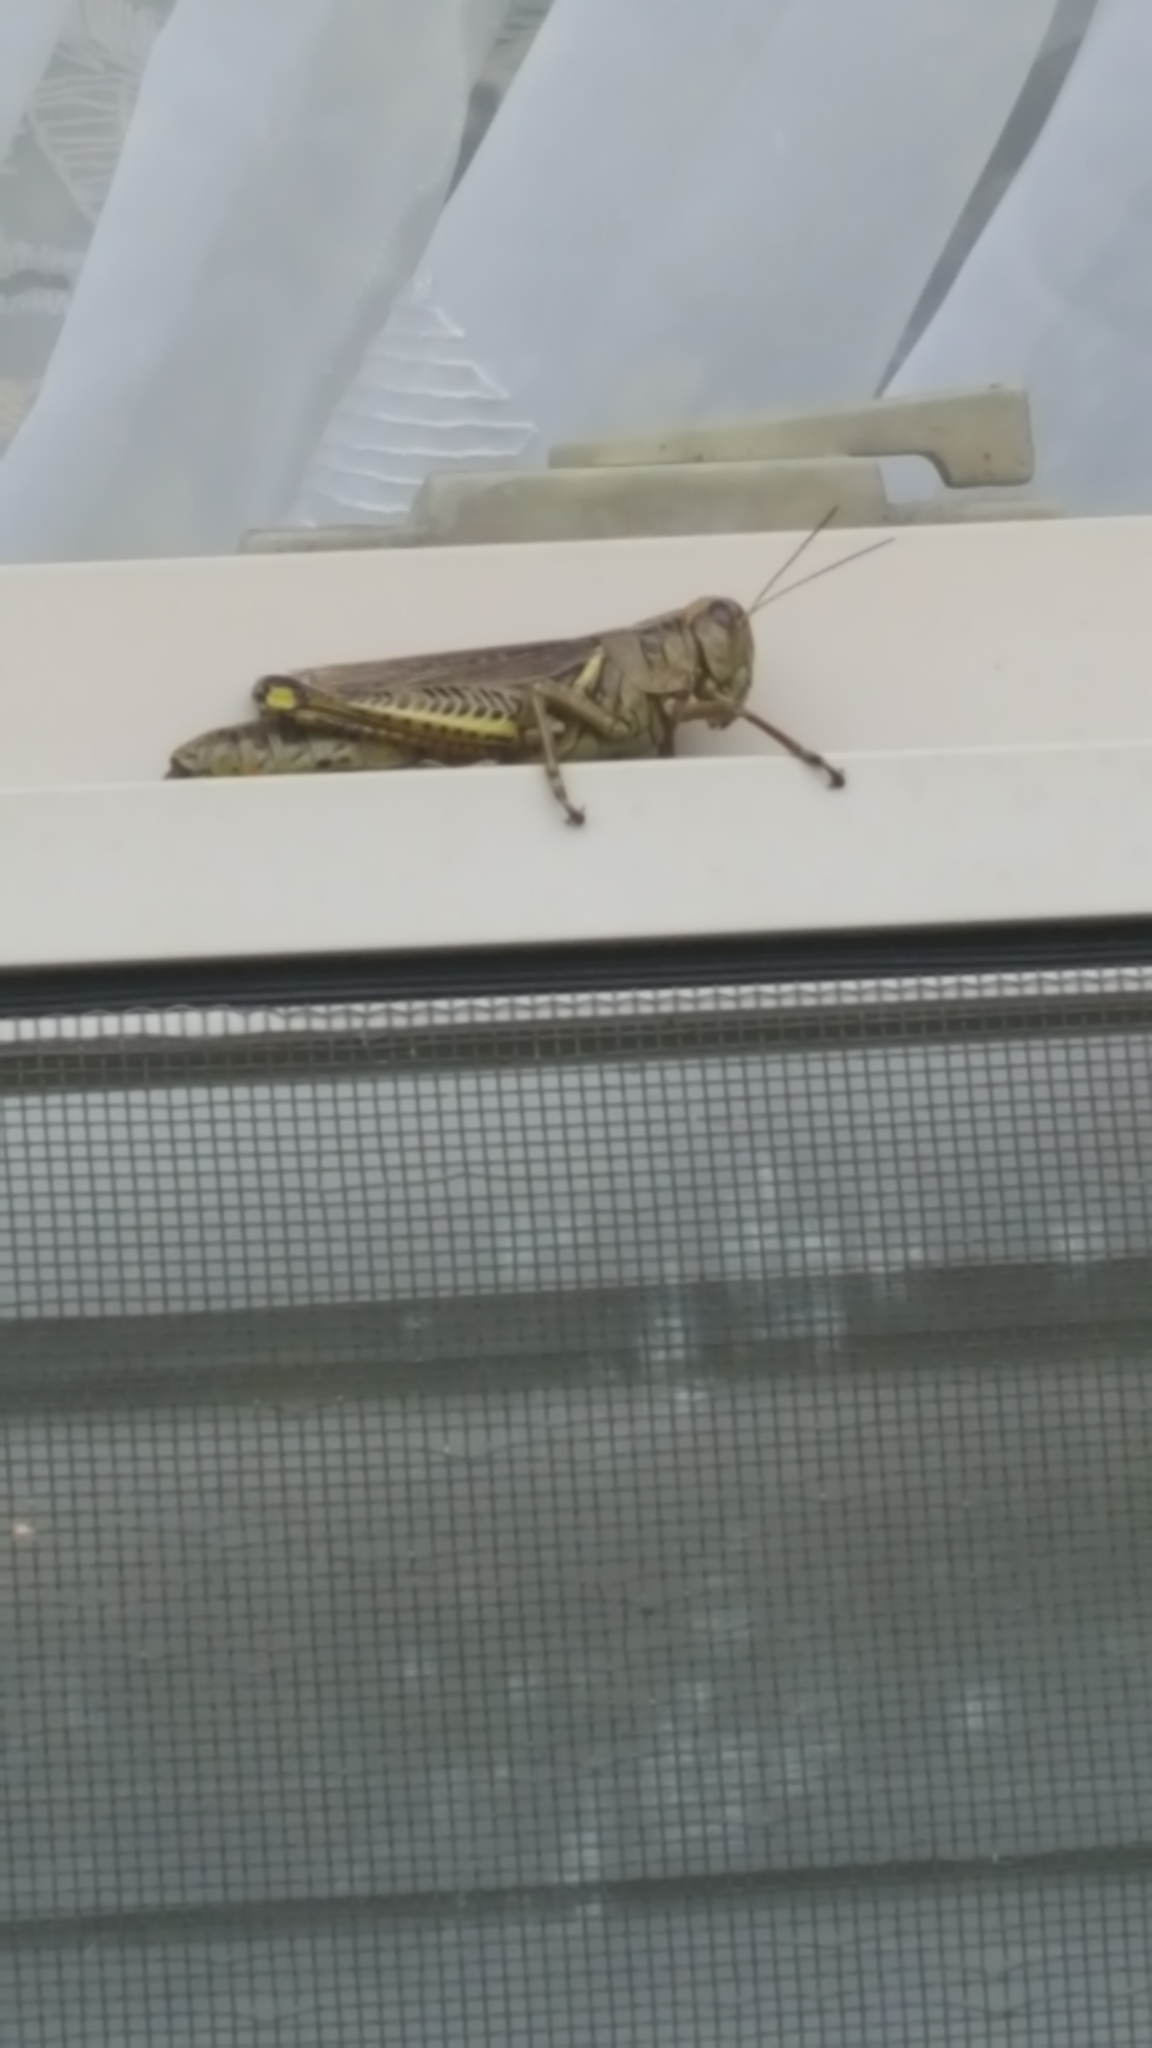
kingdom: Animalia
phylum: Arthropoda
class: Insecta
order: Orthoptera
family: Acrididae
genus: Melanoplus
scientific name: Melanoplus differentialis
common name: Differential grasshopper
